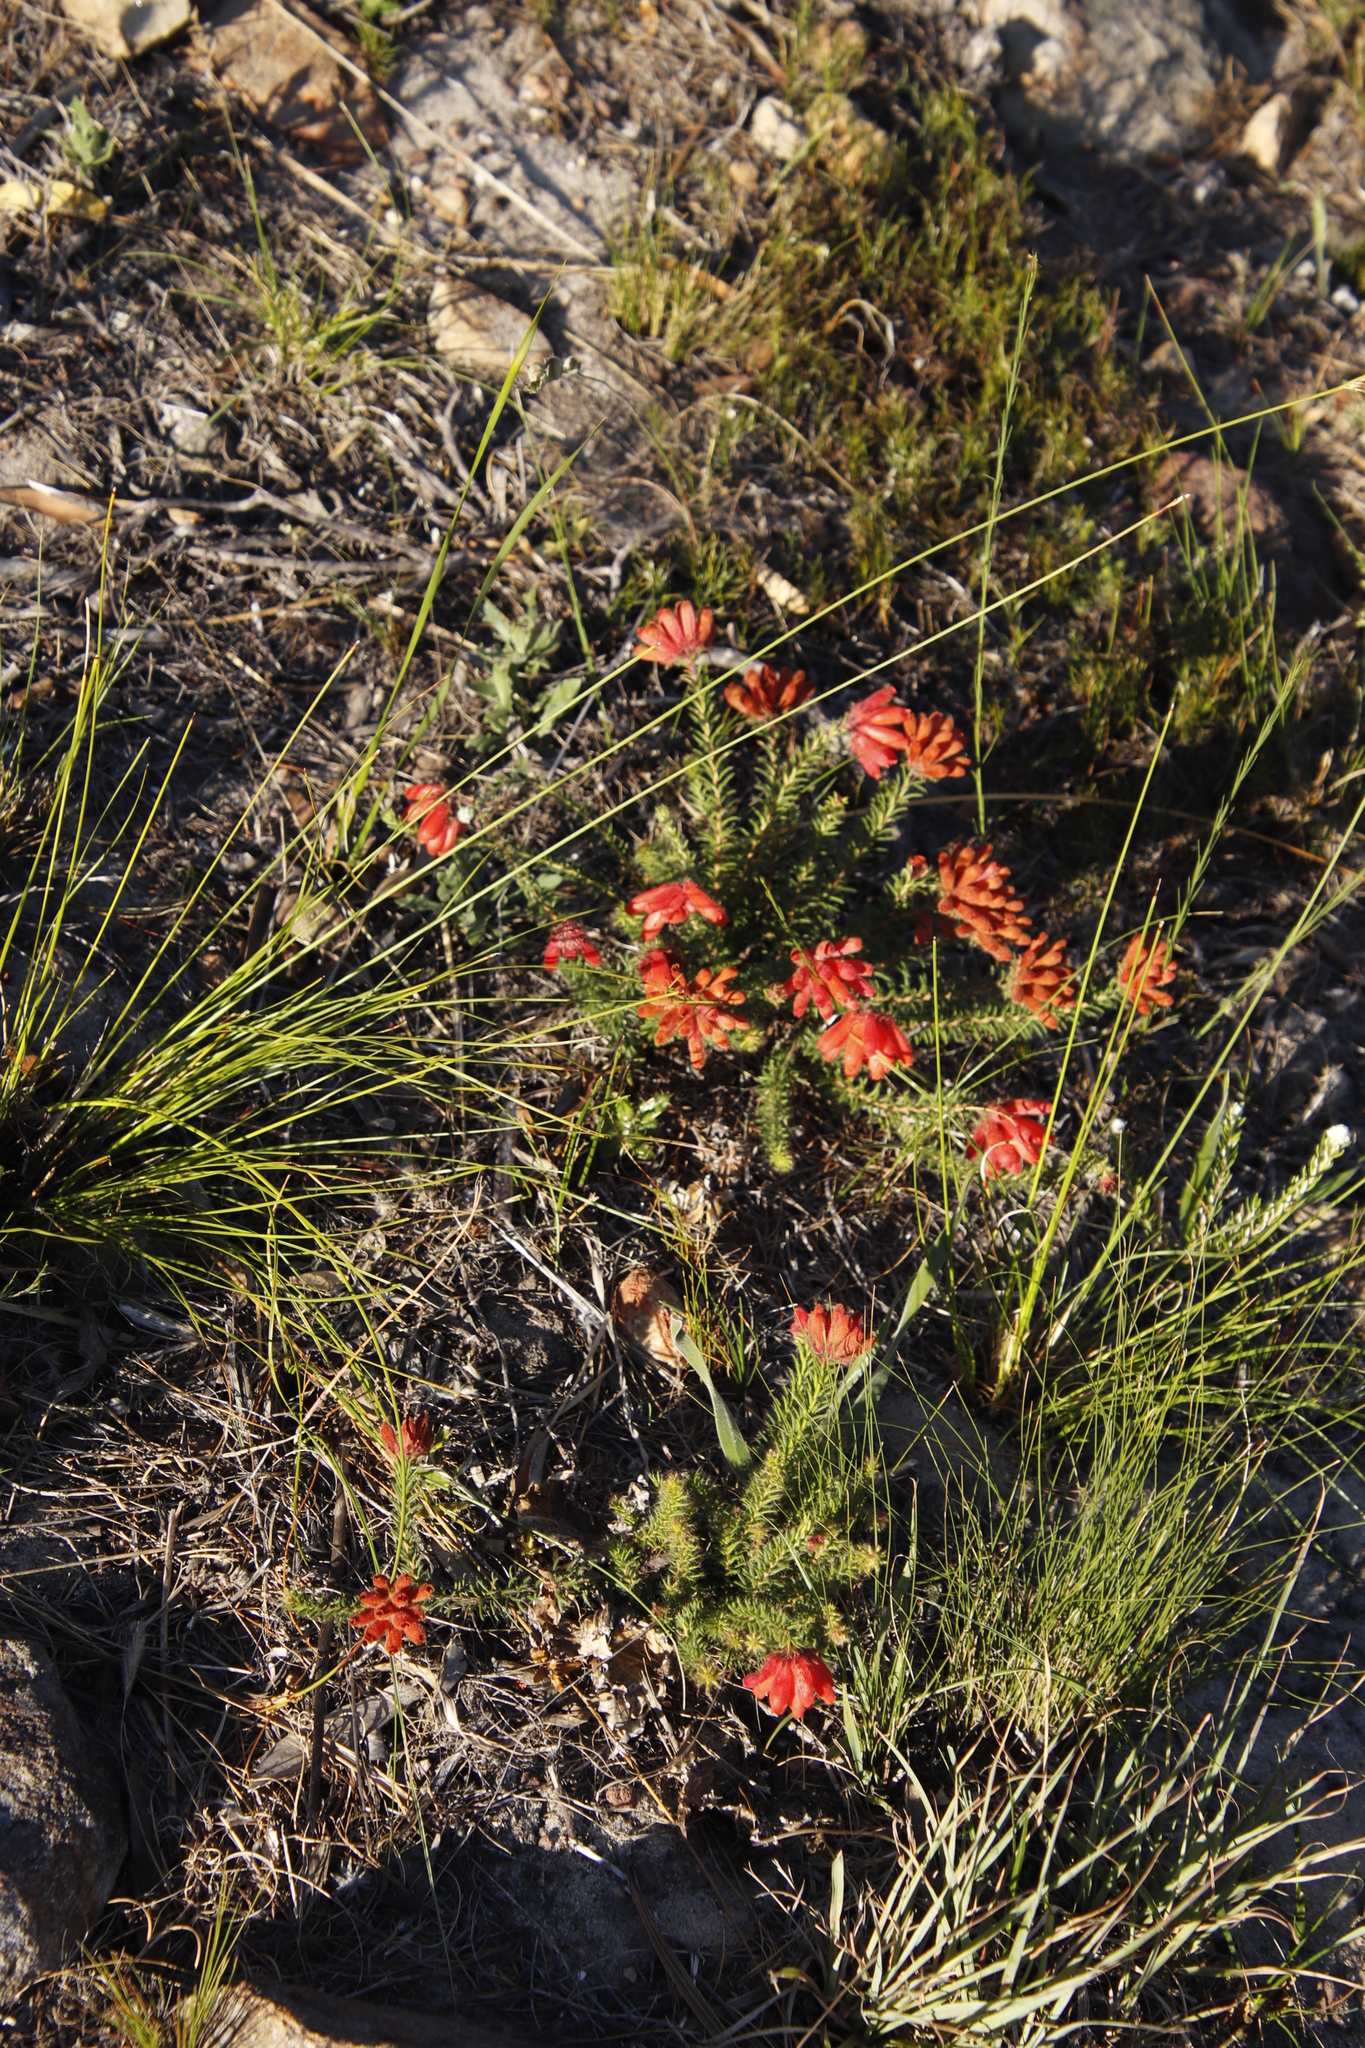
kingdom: Plantae
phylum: Tracheophyta
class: Magnoliopsida
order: Ericales
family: Ericaceae
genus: Erica
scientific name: Erica cerinthoides
